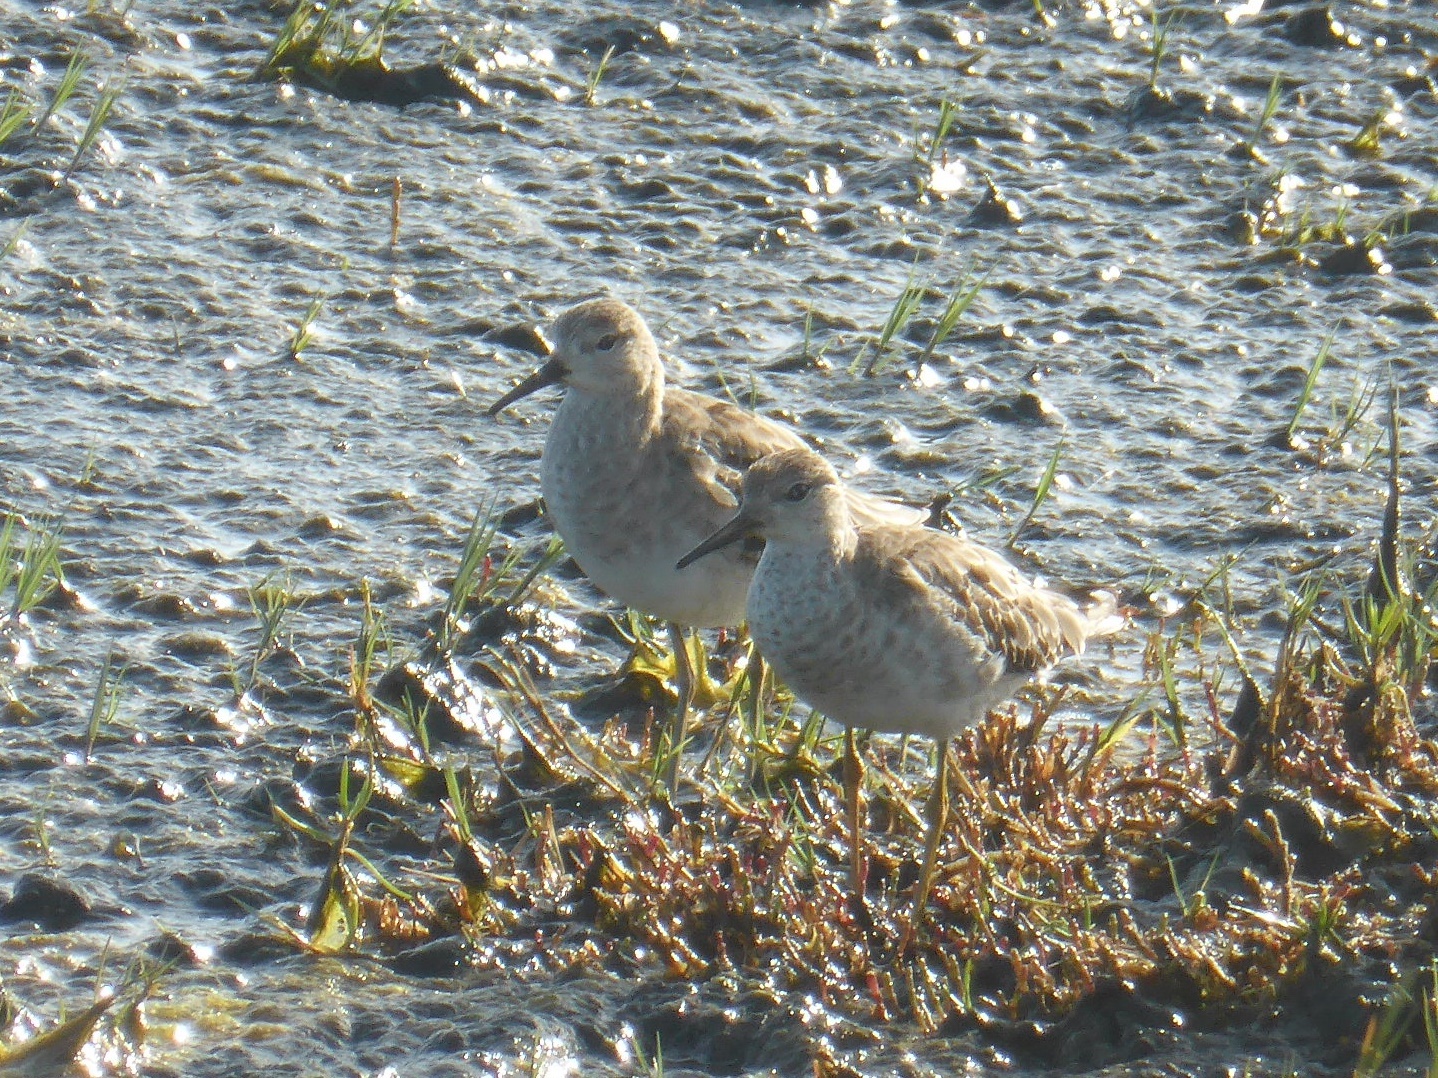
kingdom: Animalia
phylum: Chordata
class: Aves
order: Charadriiformes
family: Scolopacidae
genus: Calidris
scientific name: Calidris pugnax
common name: Ruff
